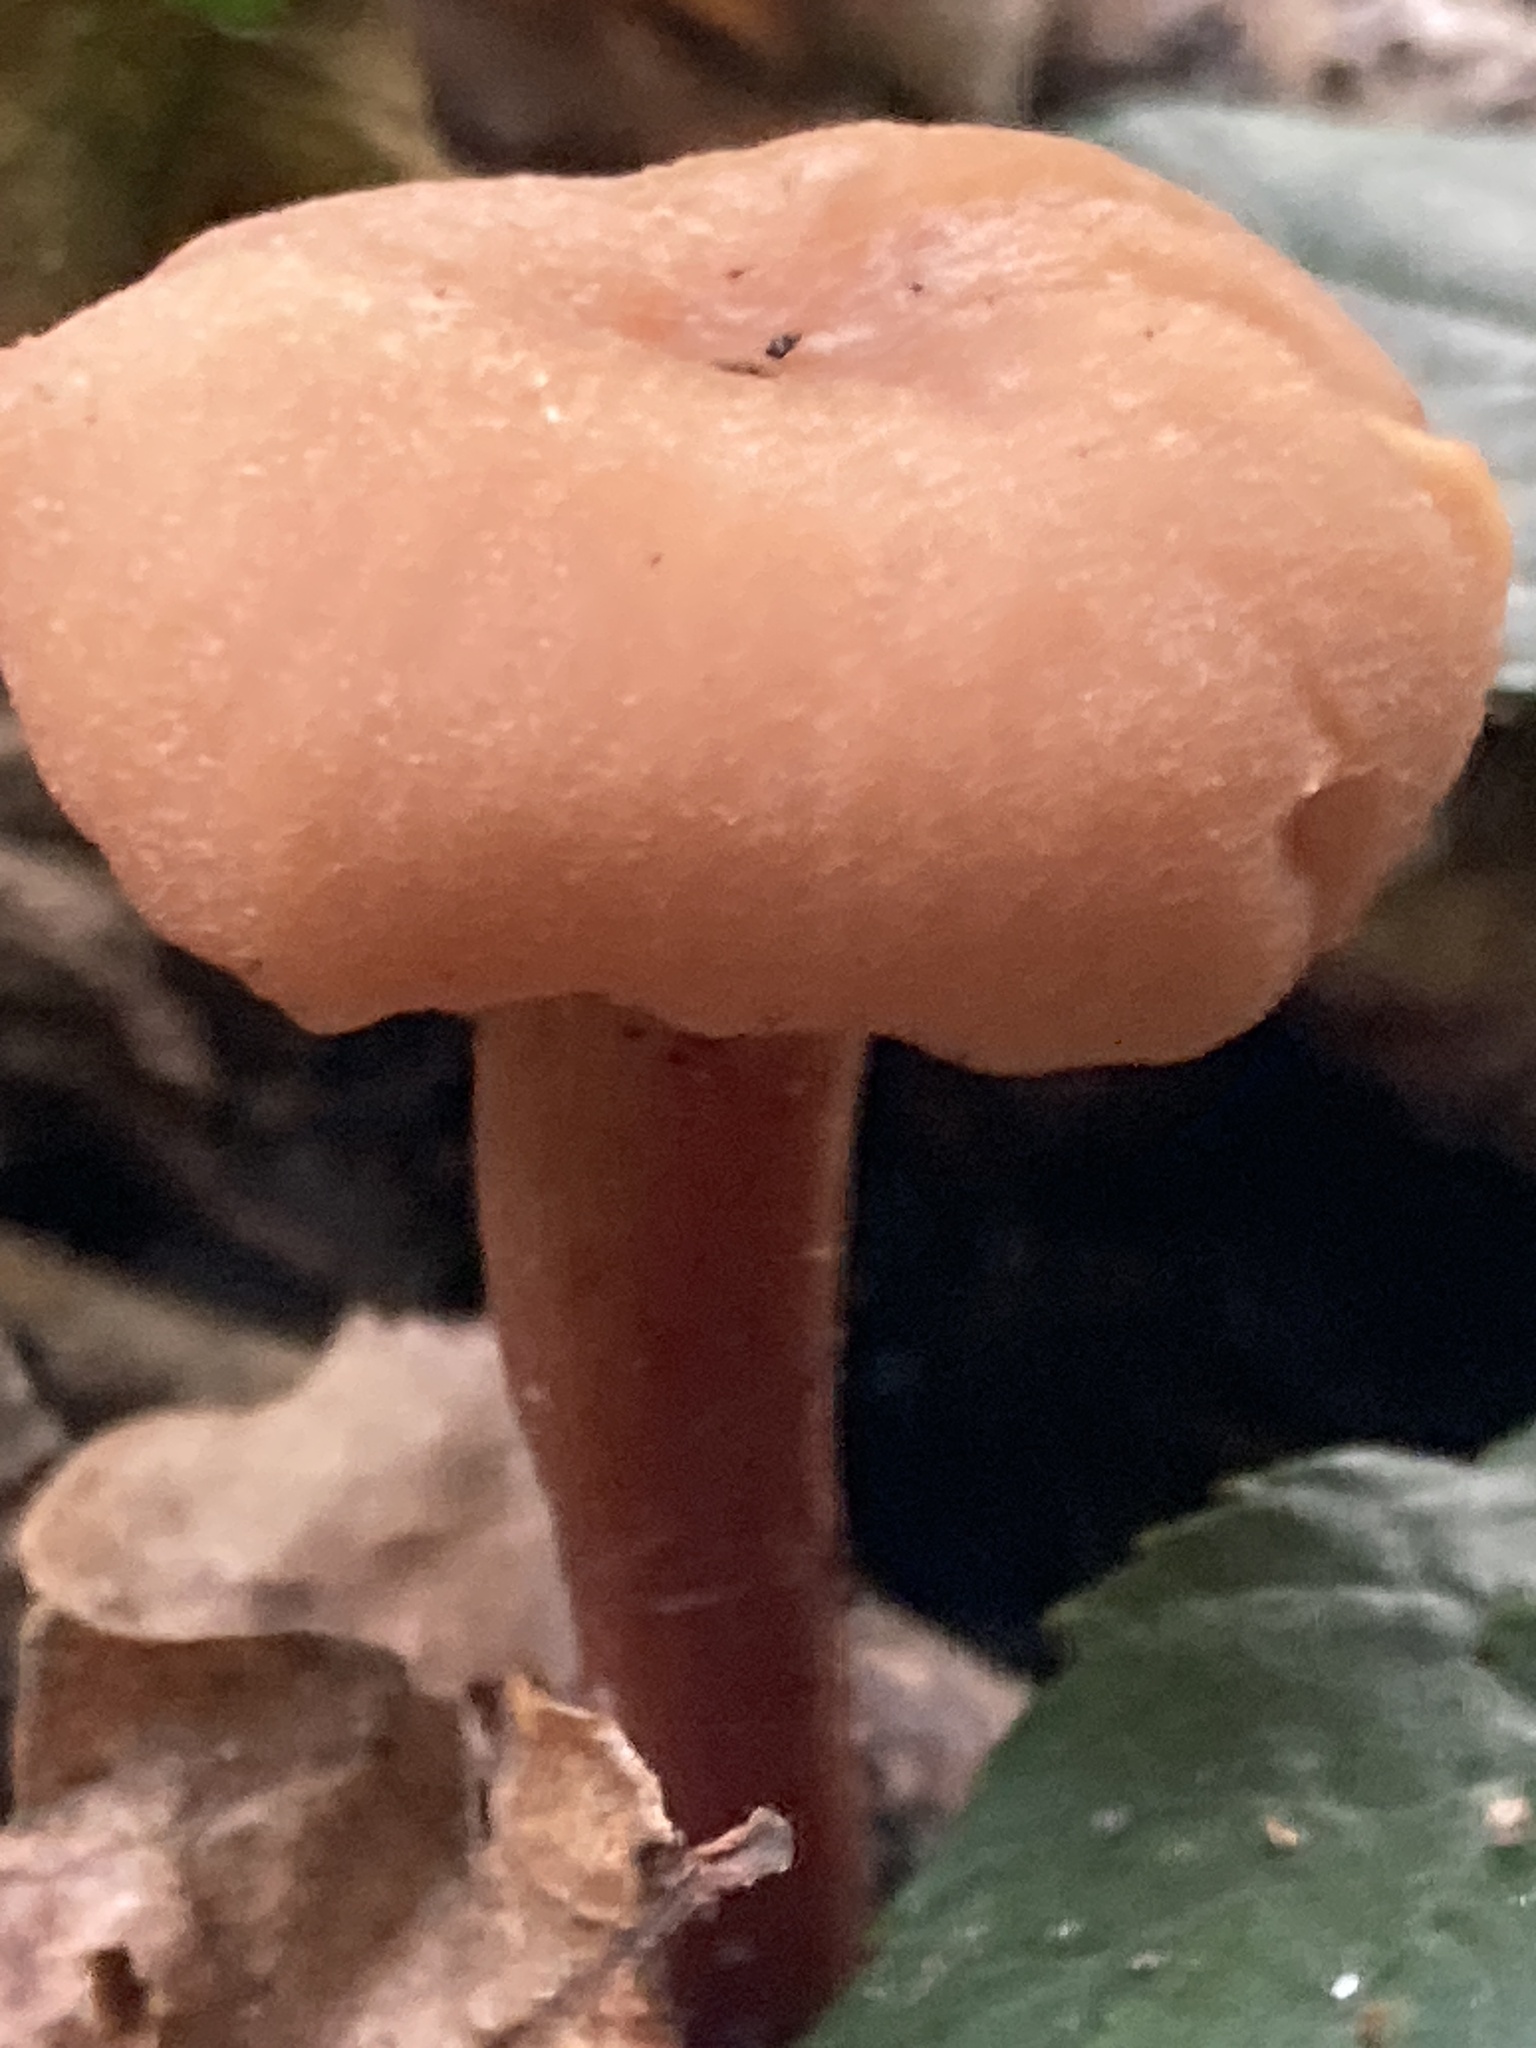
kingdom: Fungi
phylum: Basidiomycota
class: Agaricomycetes
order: Agaricales
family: Hydnangiaceae
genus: Laccaria
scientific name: Laccaria laccata
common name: Deceiver
